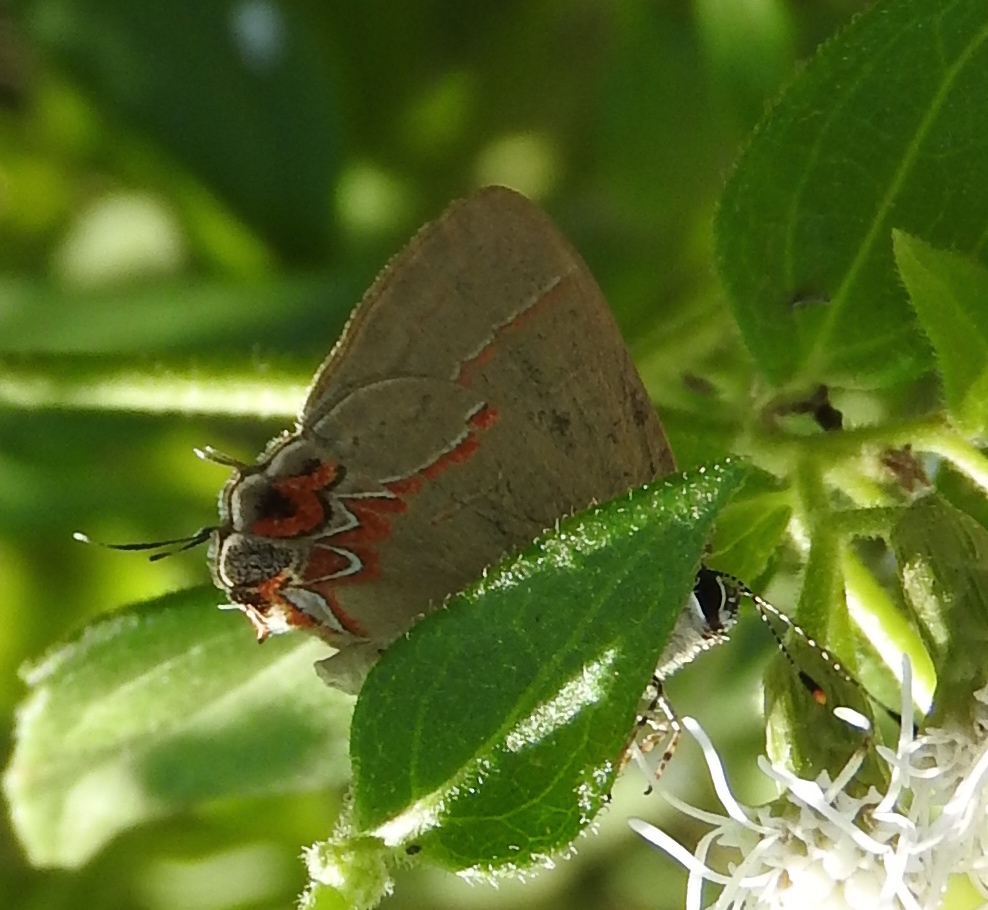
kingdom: Animalia
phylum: Arthropoda
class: Insecta
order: Lepidoptera
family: Lycaenidae
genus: Calycopis
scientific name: Calycopis
